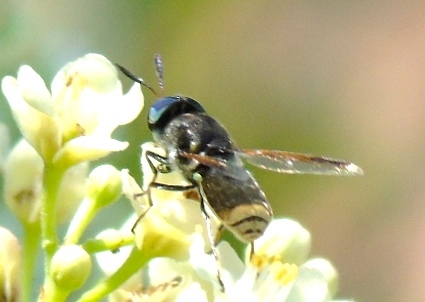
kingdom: Animalia
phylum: Arthropoda
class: Insecta
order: Diptera
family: Stratiomyidae
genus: Hoplitimyia
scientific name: Hoplitimyia
